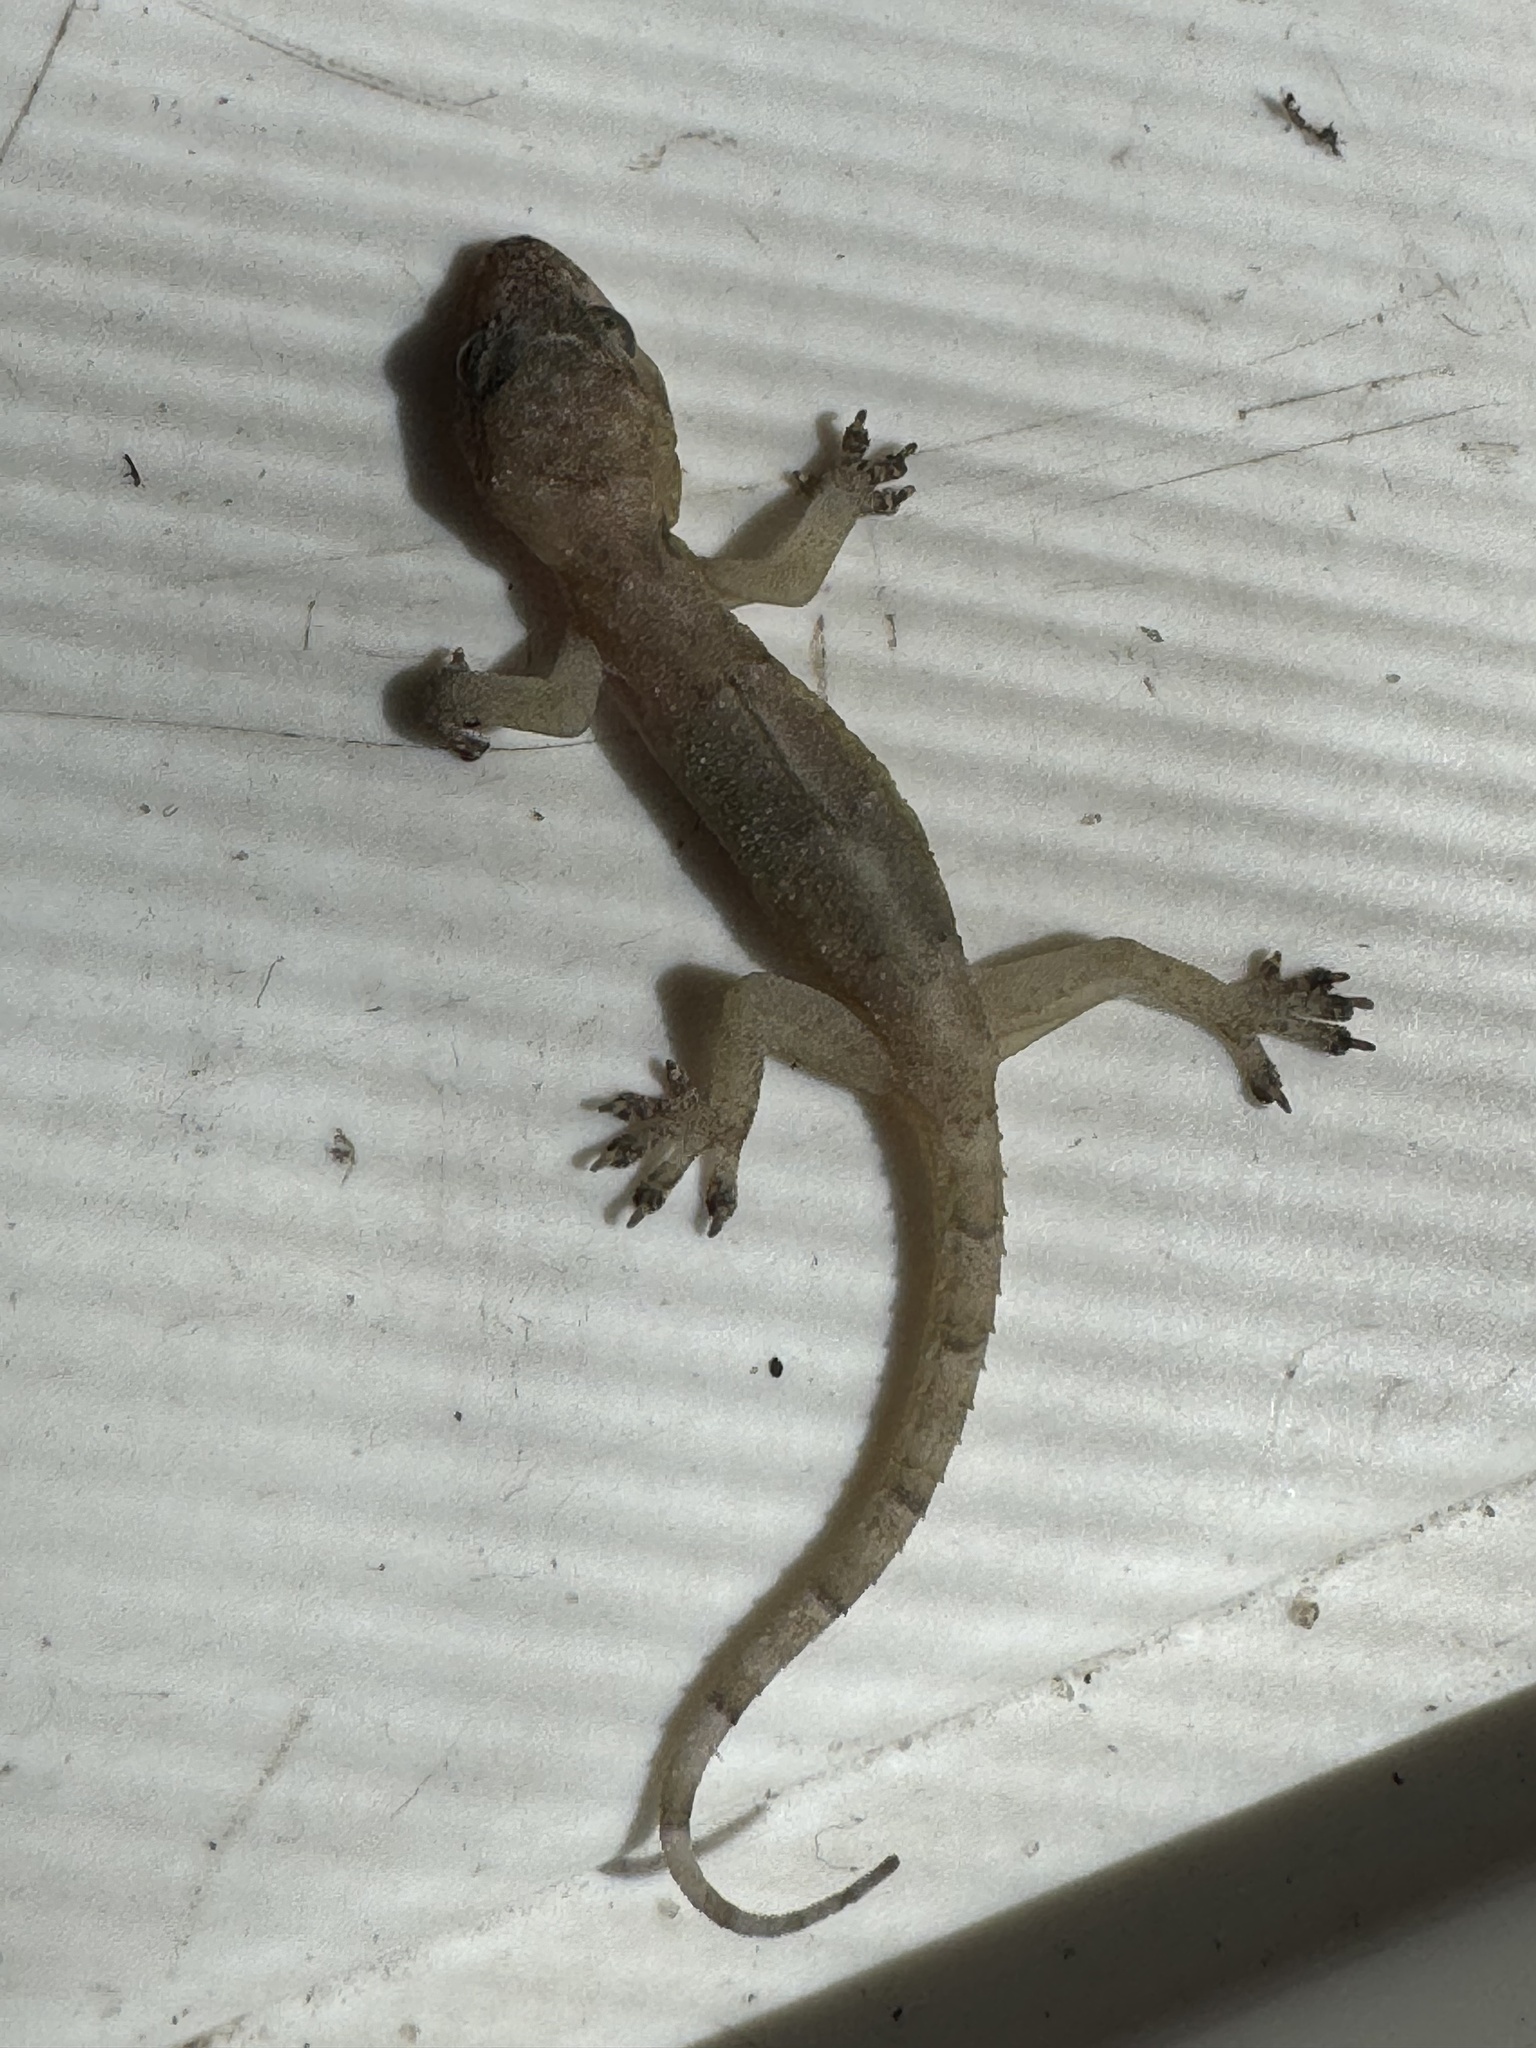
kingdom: Animalia
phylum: Chordata
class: Squamata
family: Gekkonidae
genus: Hemidactylus
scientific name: Hemidactylus mabouia
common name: House gecko
